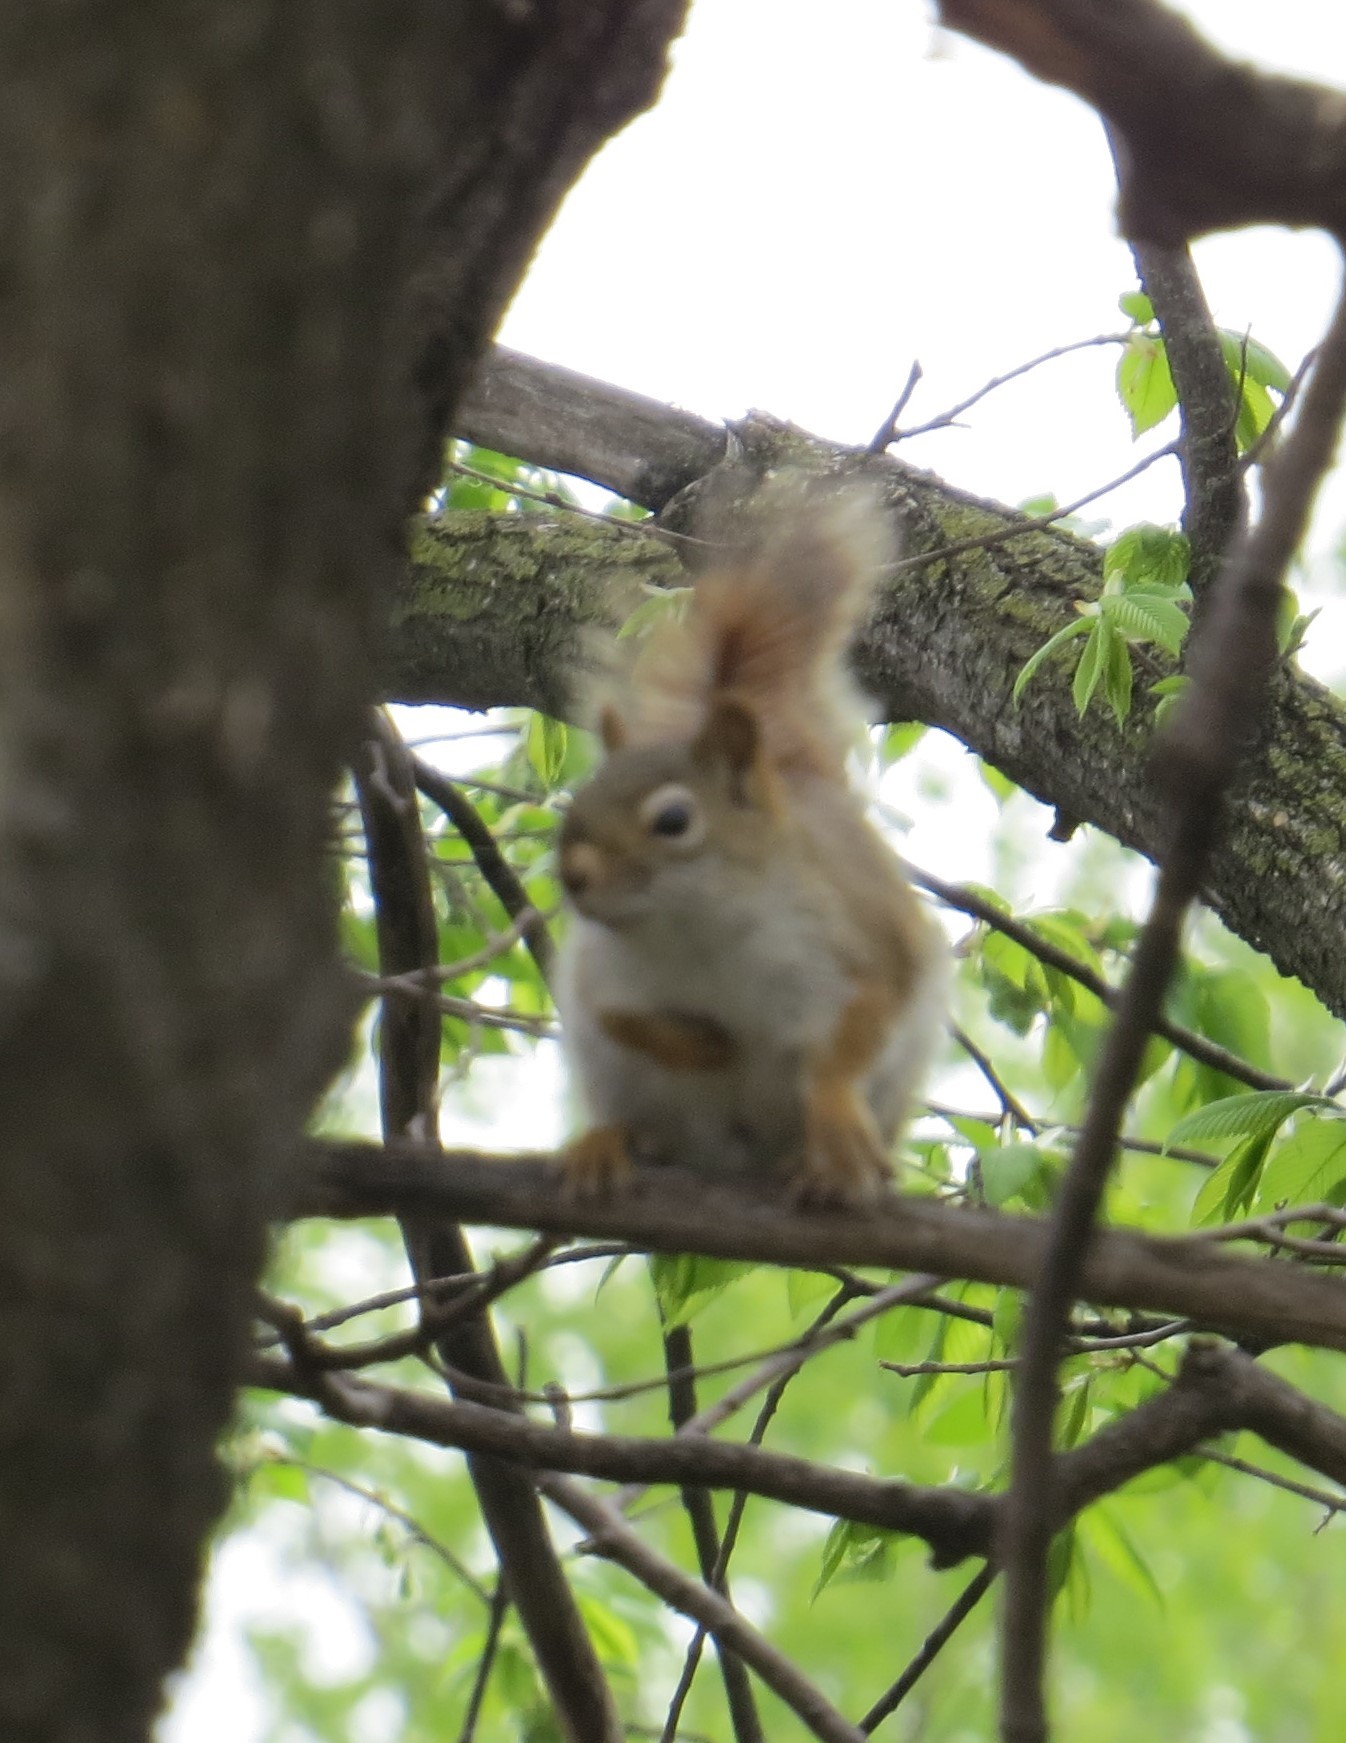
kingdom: Animalia
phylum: Chordata
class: Mammalia
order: Rodentia
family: Sciuridae
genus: Tamiasciurus
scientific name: Tamiasciurus hudsonicus
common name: Red squirrel
